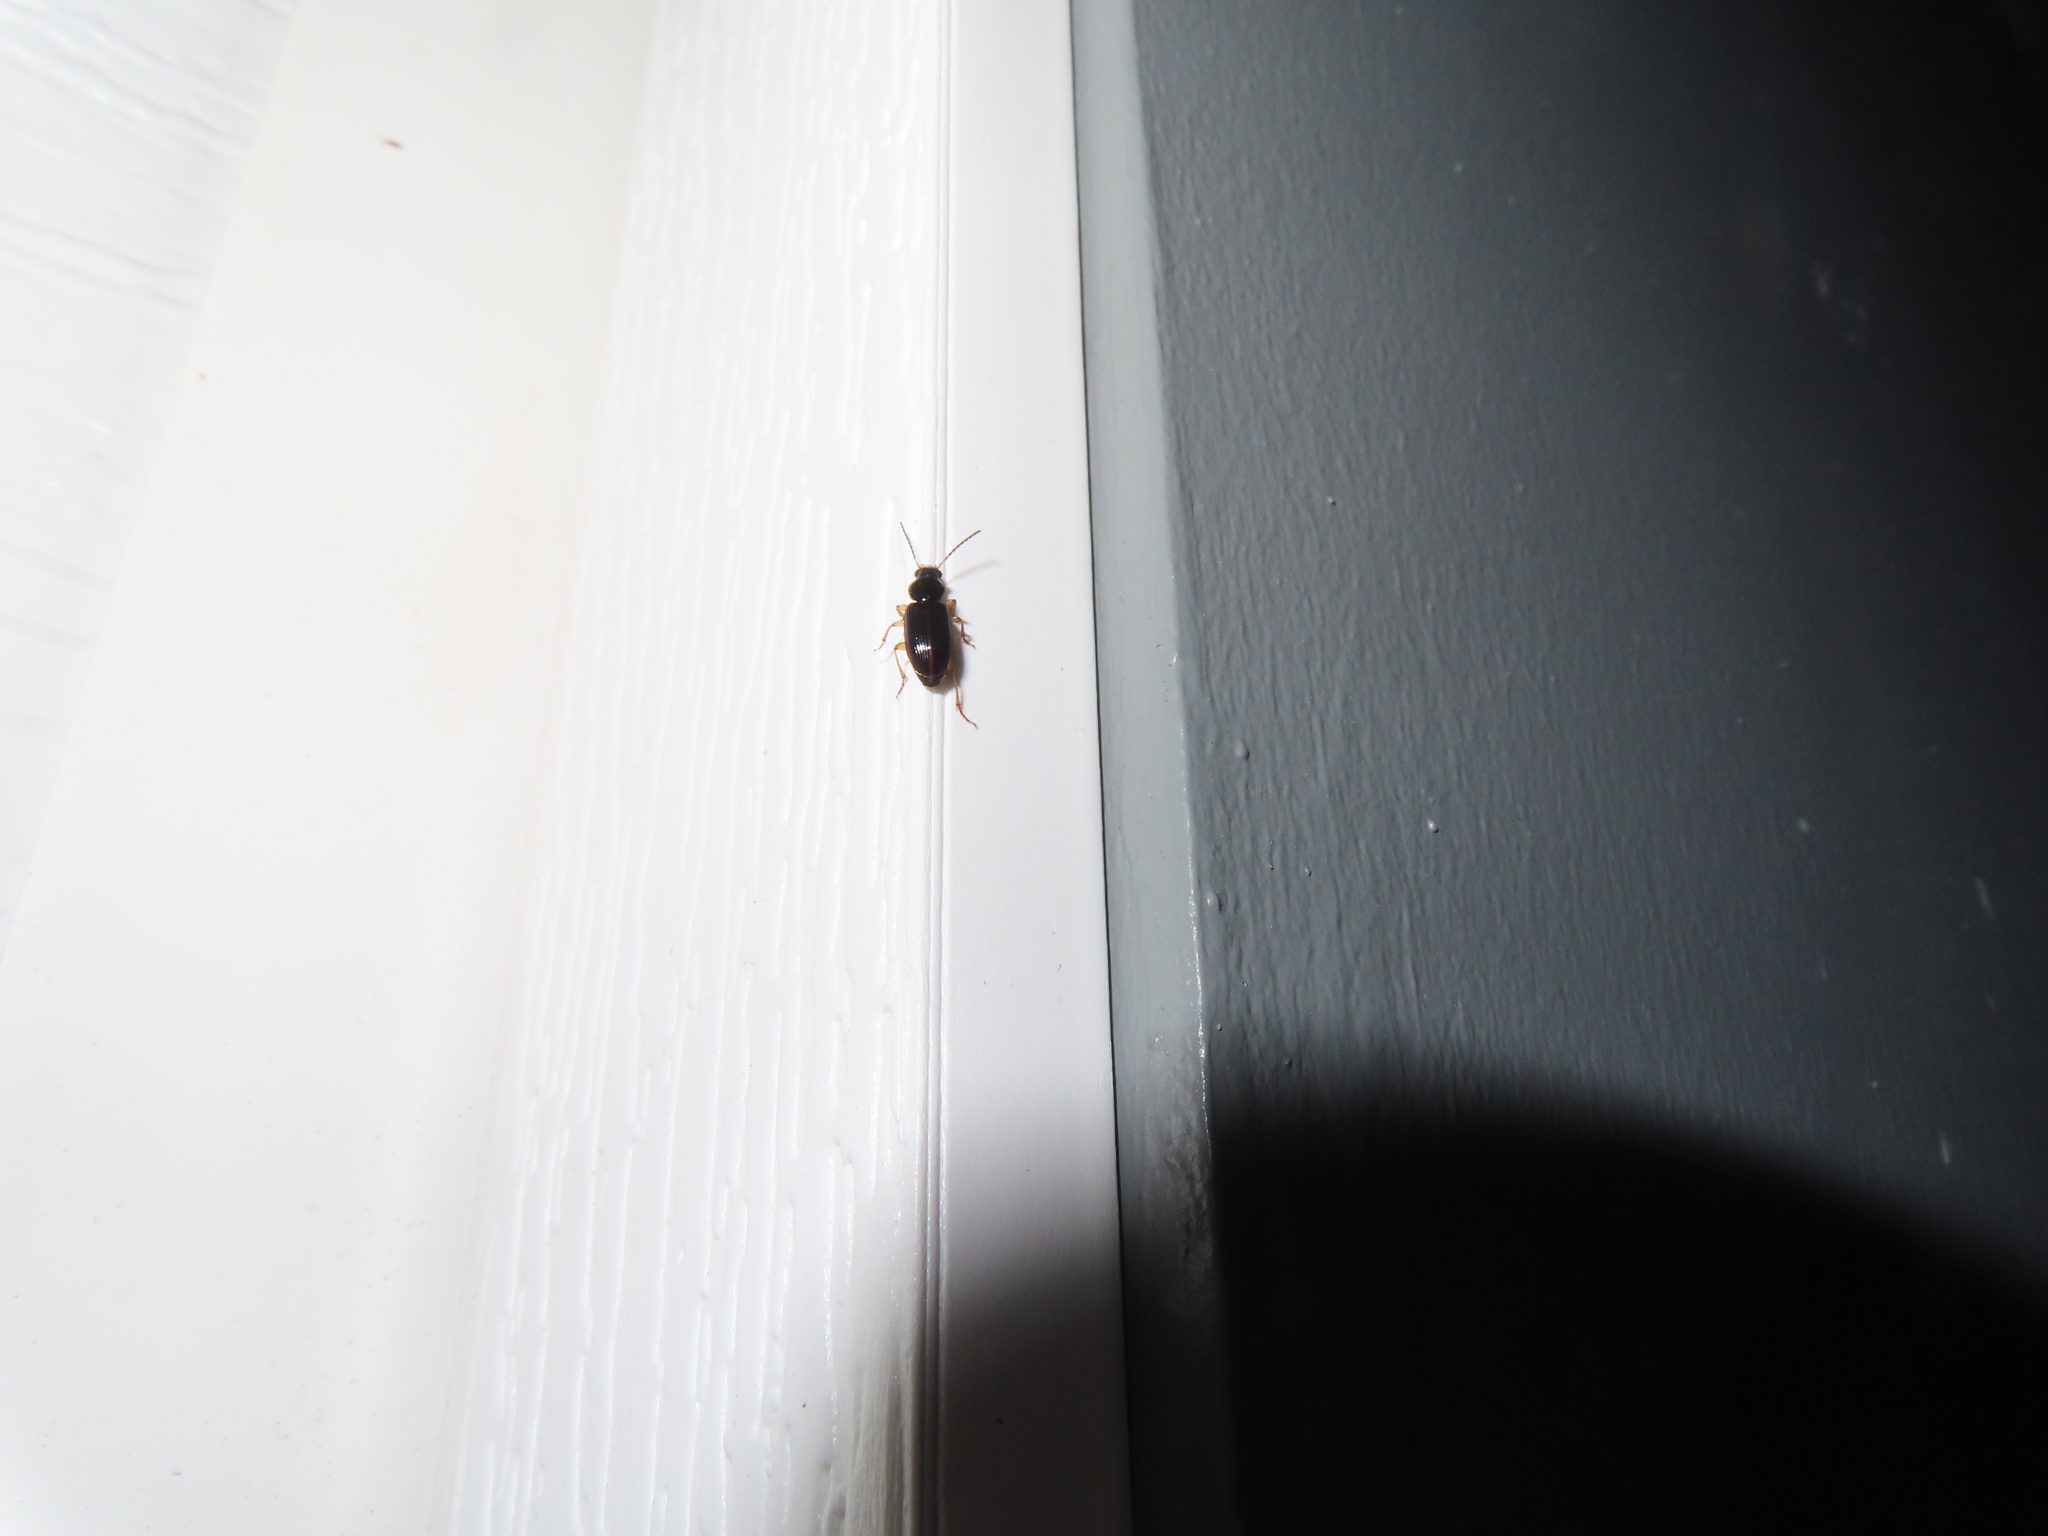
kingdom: Animalia
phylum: Arthropoda
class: Insecta
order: Coleoptera
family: Carabidae
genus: Stenolophus
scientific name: Stenolophus ochropezus
